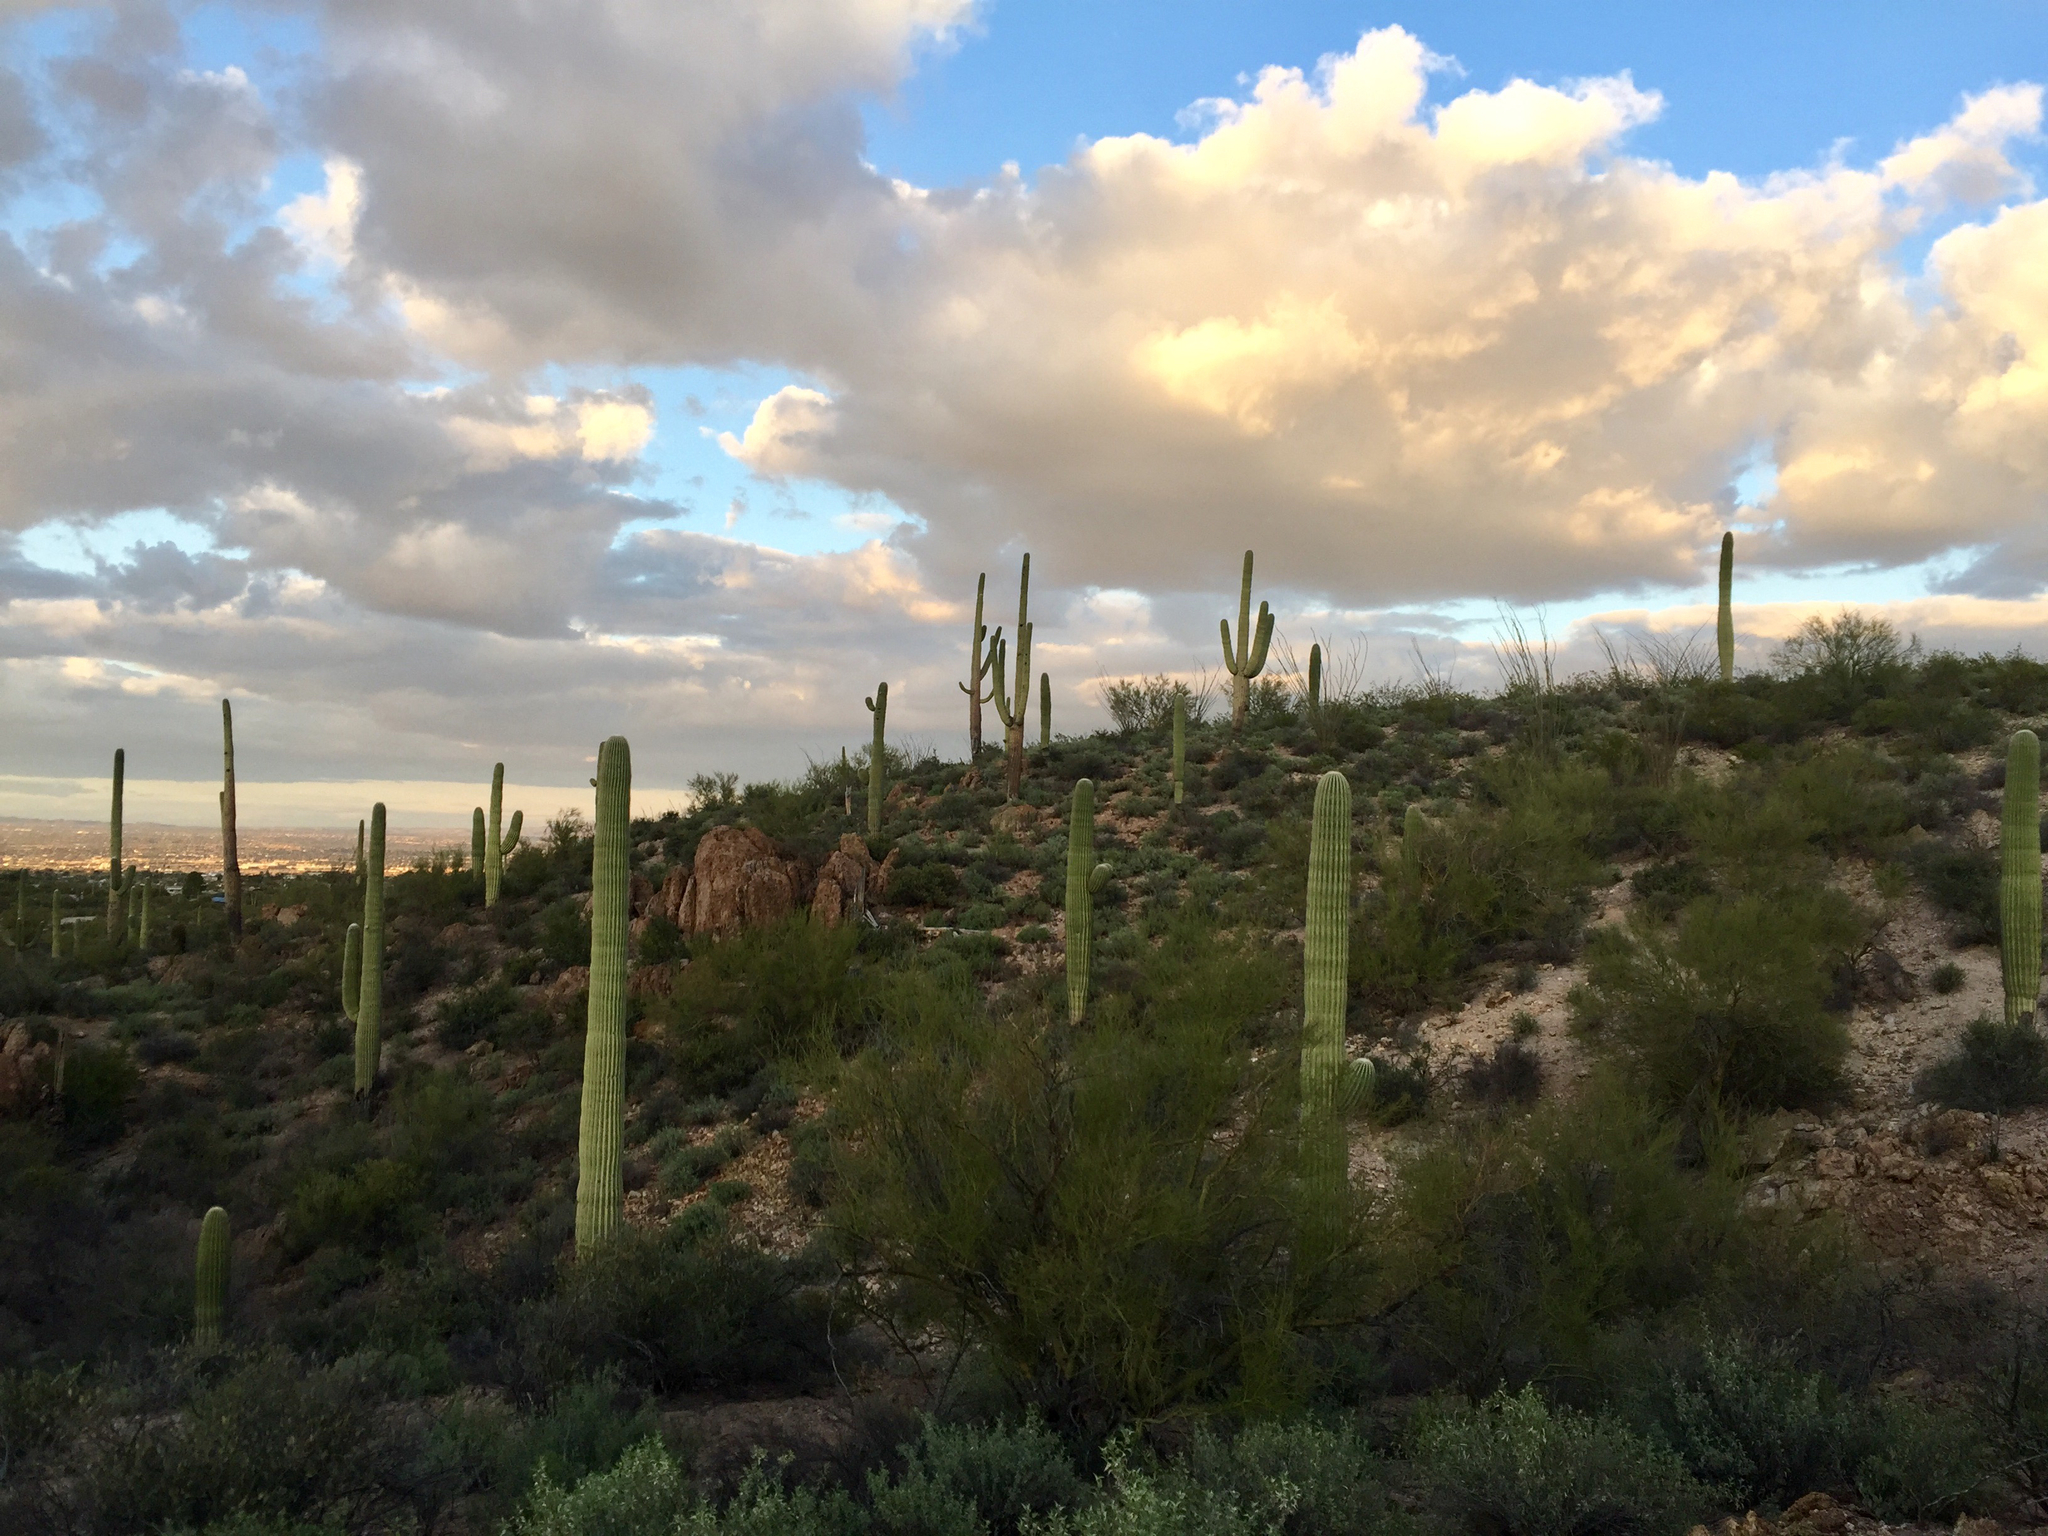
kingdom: Plantae
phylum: Tracheophyta
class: Magnoliopsida
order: Caryophyllales
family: Cactaceae
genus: Carnegiea
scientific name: Carnegiea gigantea
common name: Saguaro
